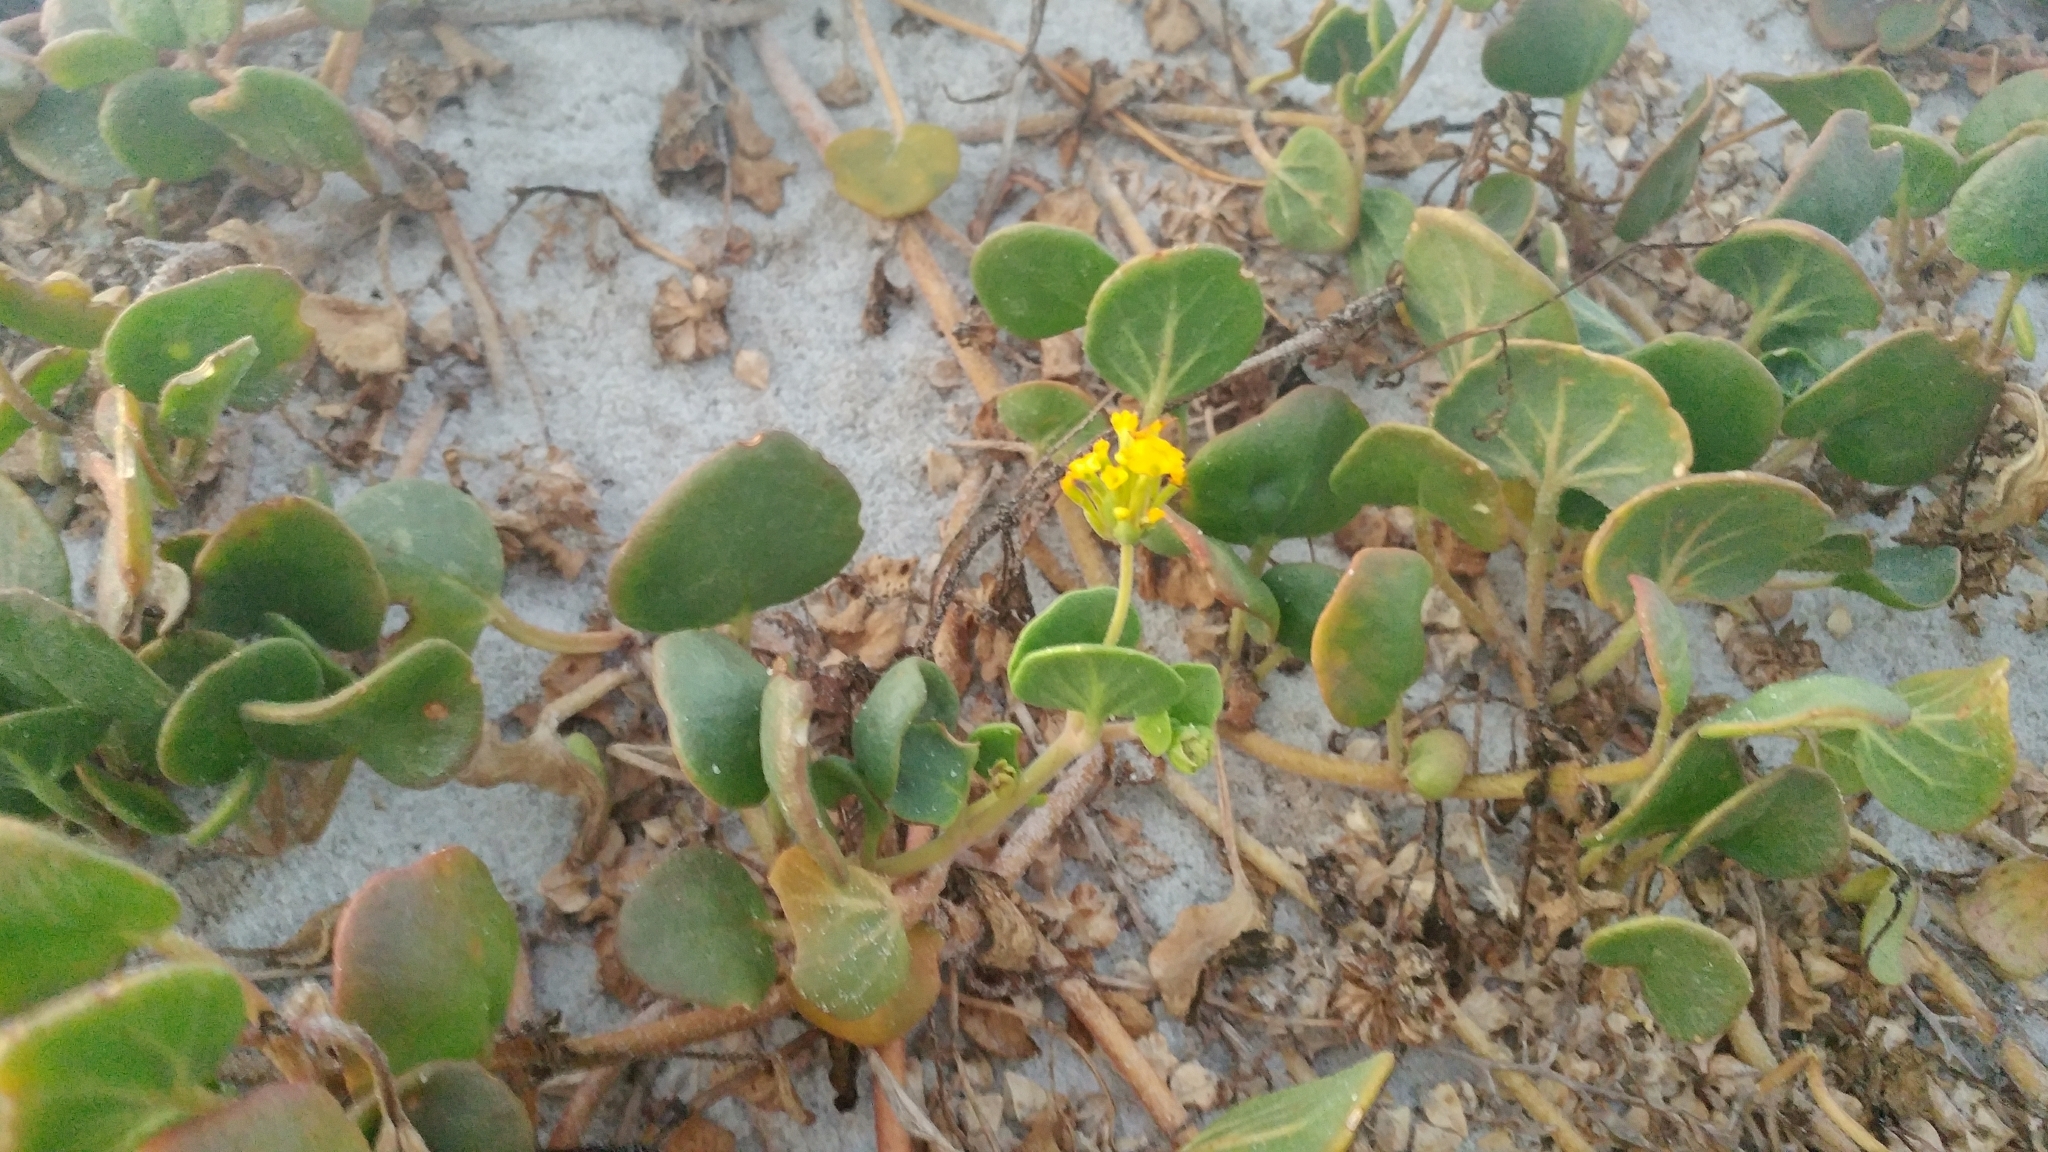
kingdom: Plantae
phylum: Tracheophyta
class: Magnoliopsida
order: Caryophyllales
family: Nyctaginaceae
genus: Abronia
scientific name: Abronia latifolia
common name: Yellow sand-verbena
